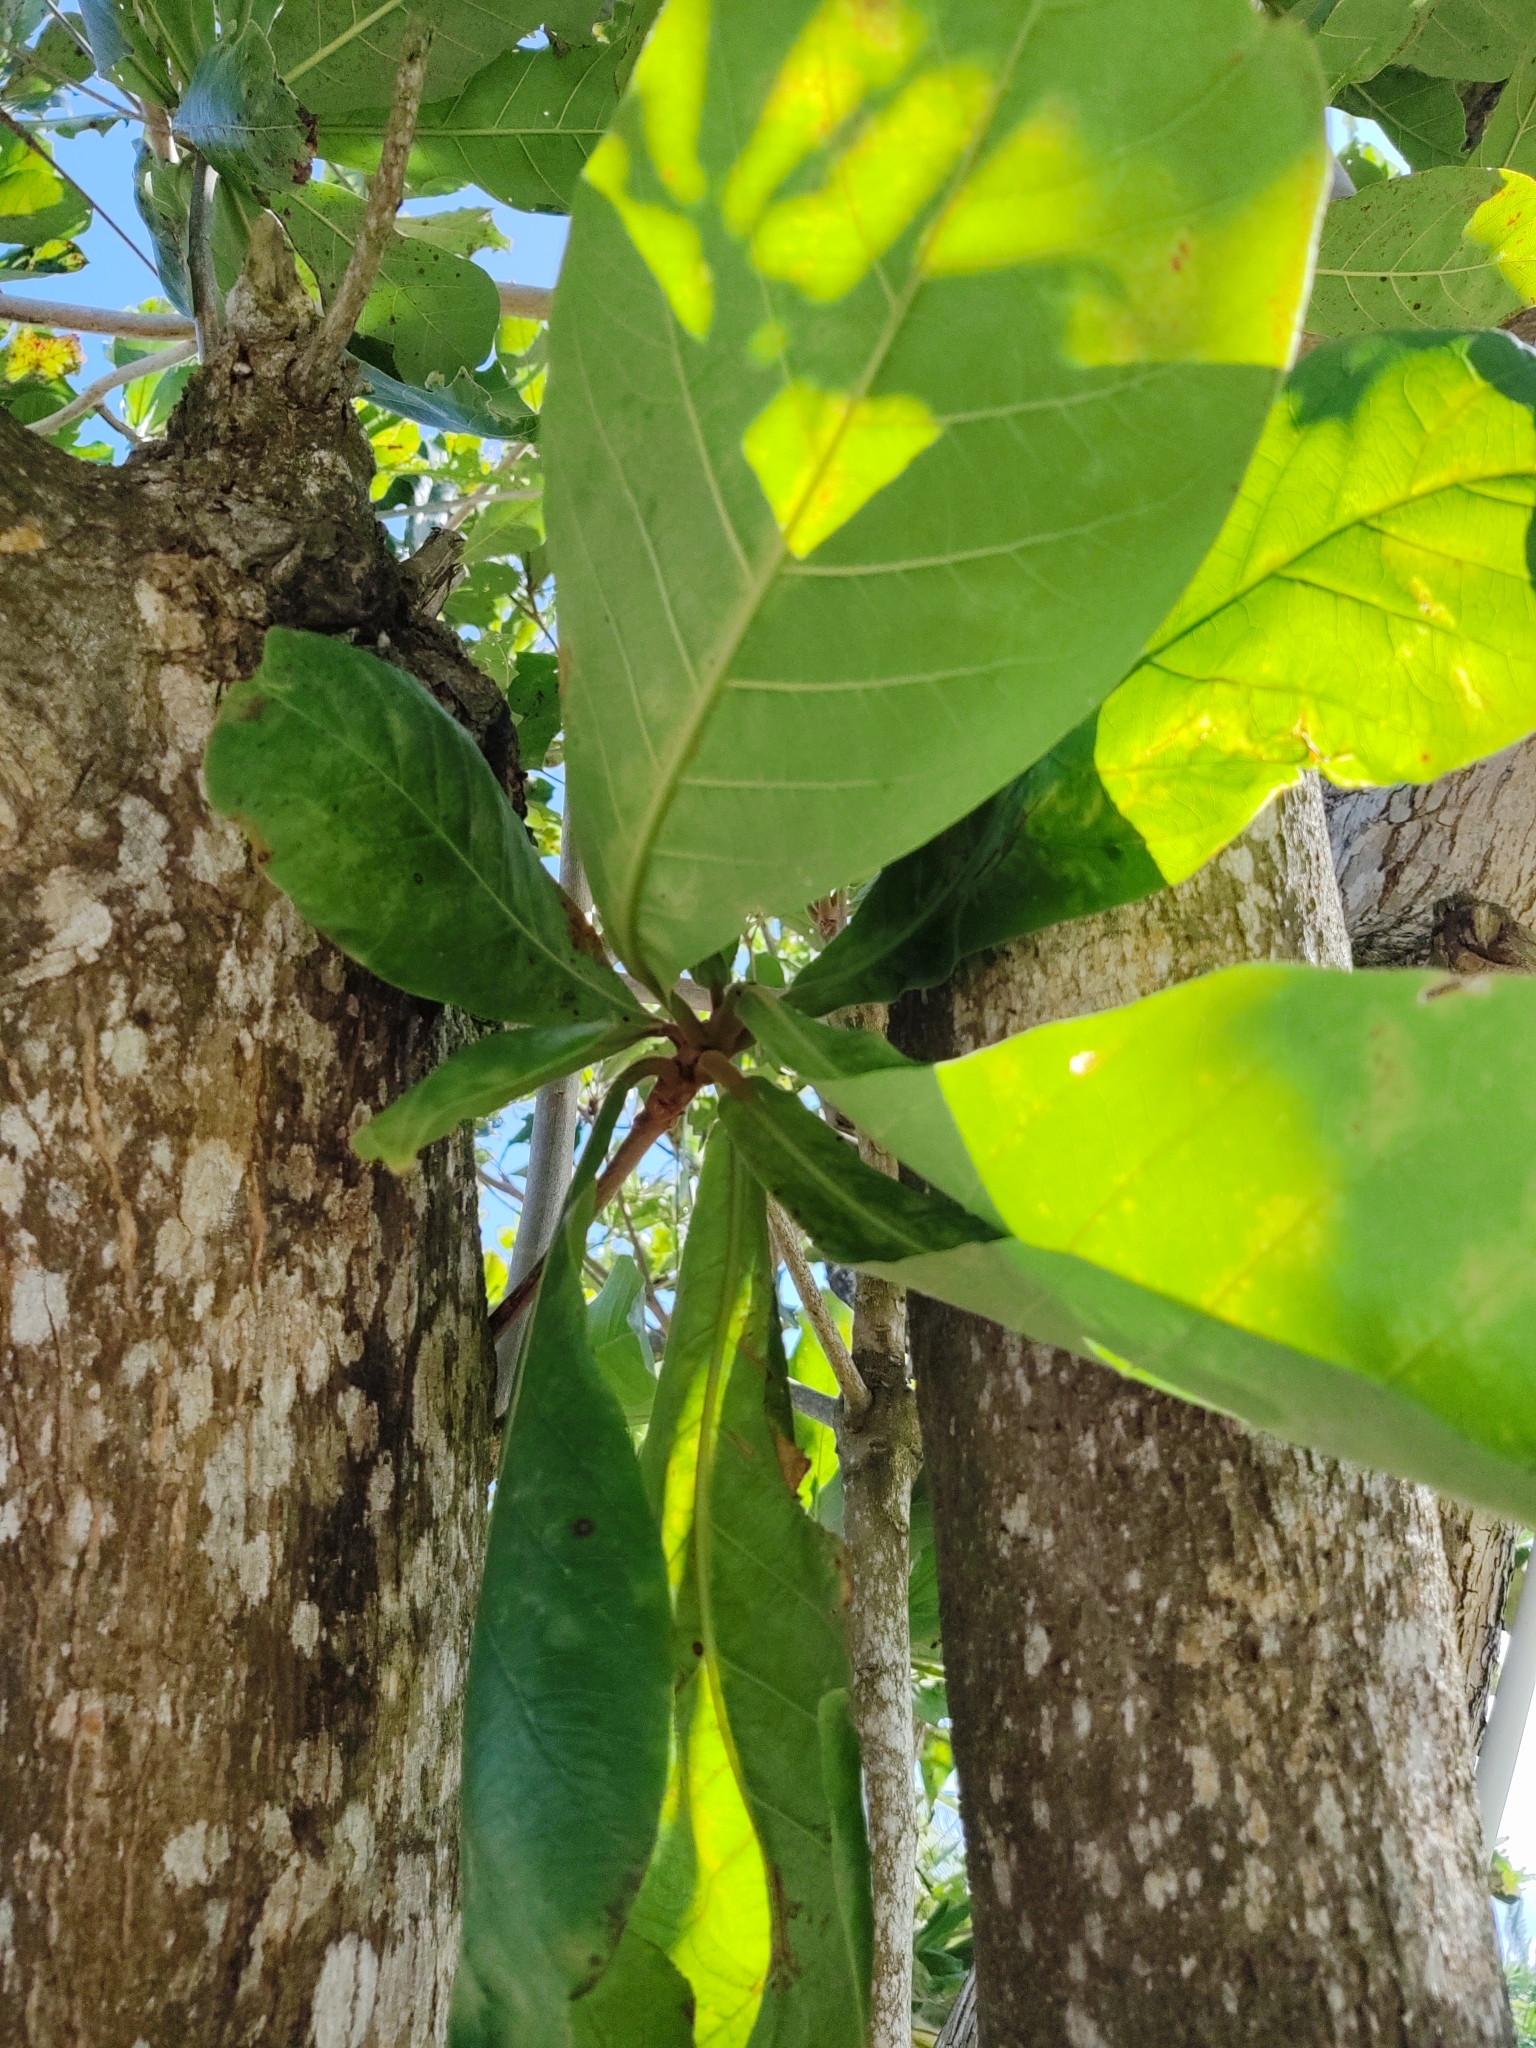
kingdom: Plantae
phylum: Tracheophyta
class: Magnoliopsida
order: Myrtales
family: Combretaceae
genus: Terminalia
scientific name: Terminalia catappa
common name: Tropical almond
